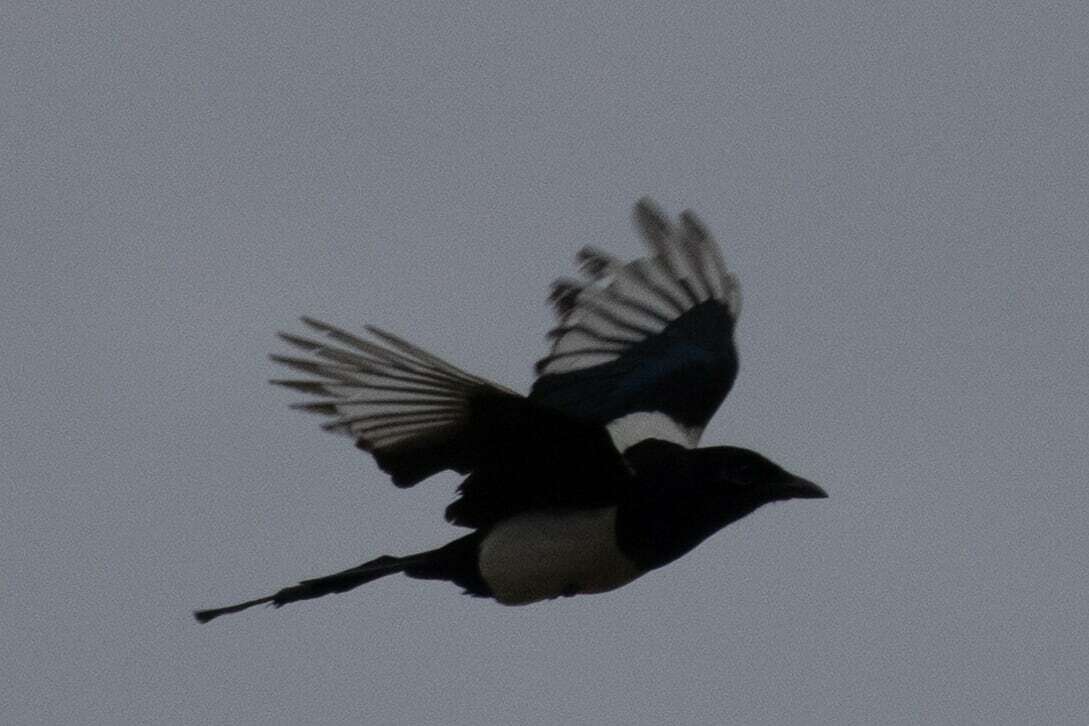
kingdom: Animalia
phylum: Chordata
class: Aves
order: Passeriformes
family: Corvidae
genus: Pica
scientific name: Pica pica
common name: Eurasian magpie
